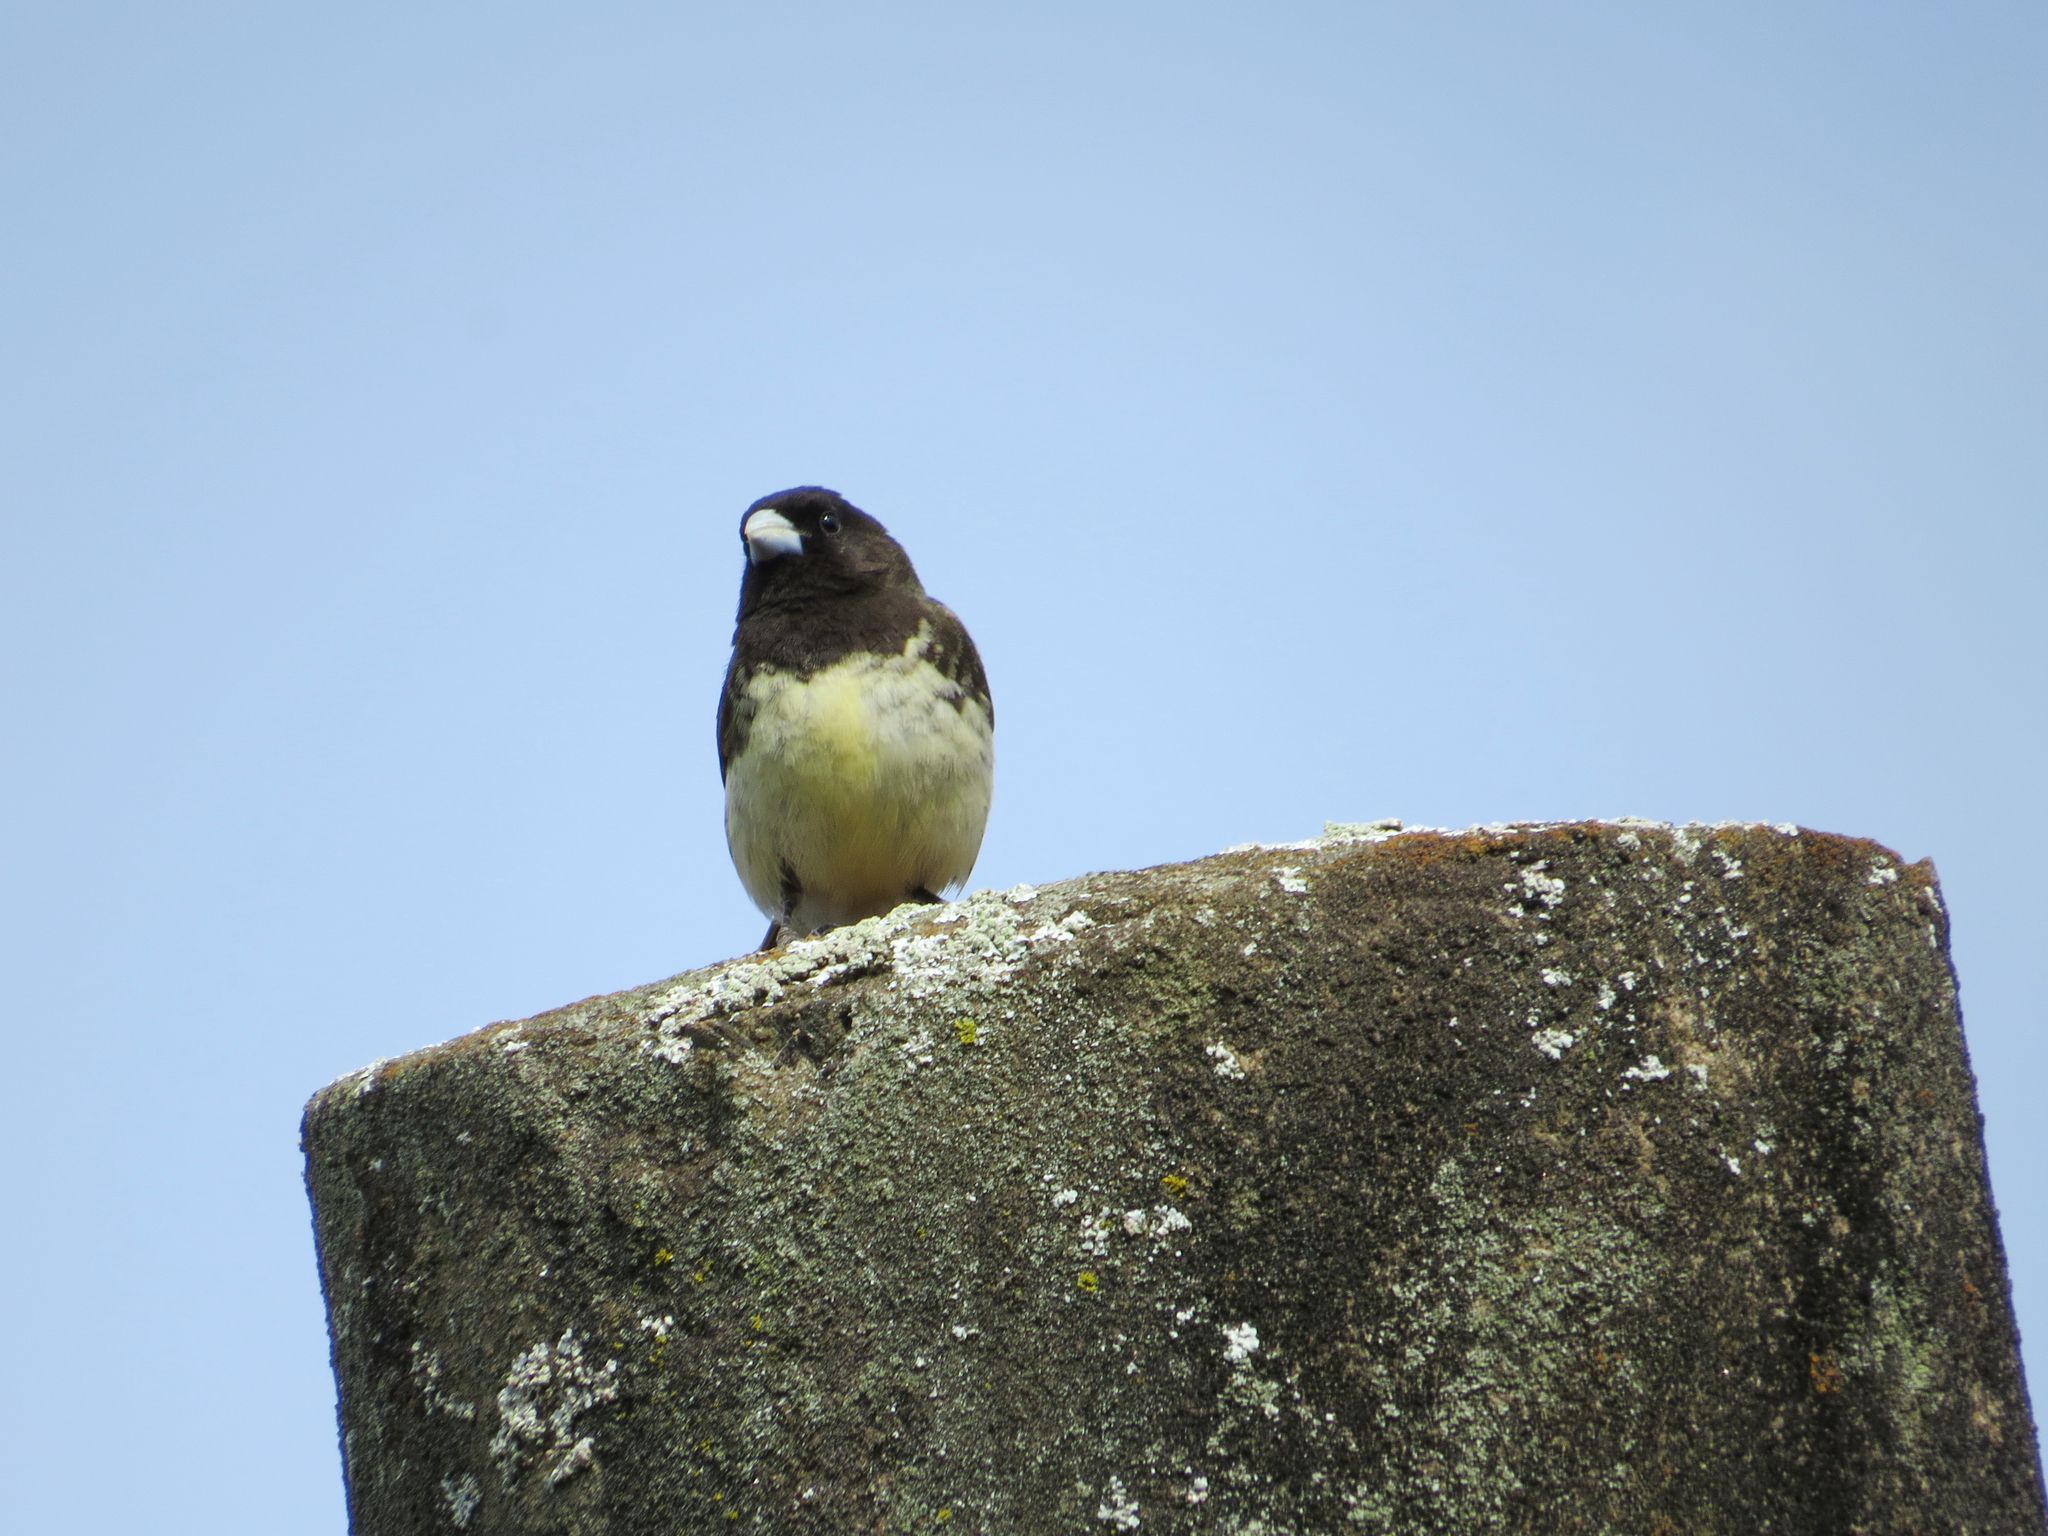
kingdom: Animalia
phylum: Chordata
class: Aves
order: Passeriformes
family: Thraupidae
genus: Sporophila
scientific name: Sporophila nigricollis
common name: Yellow-bellied seedeater
